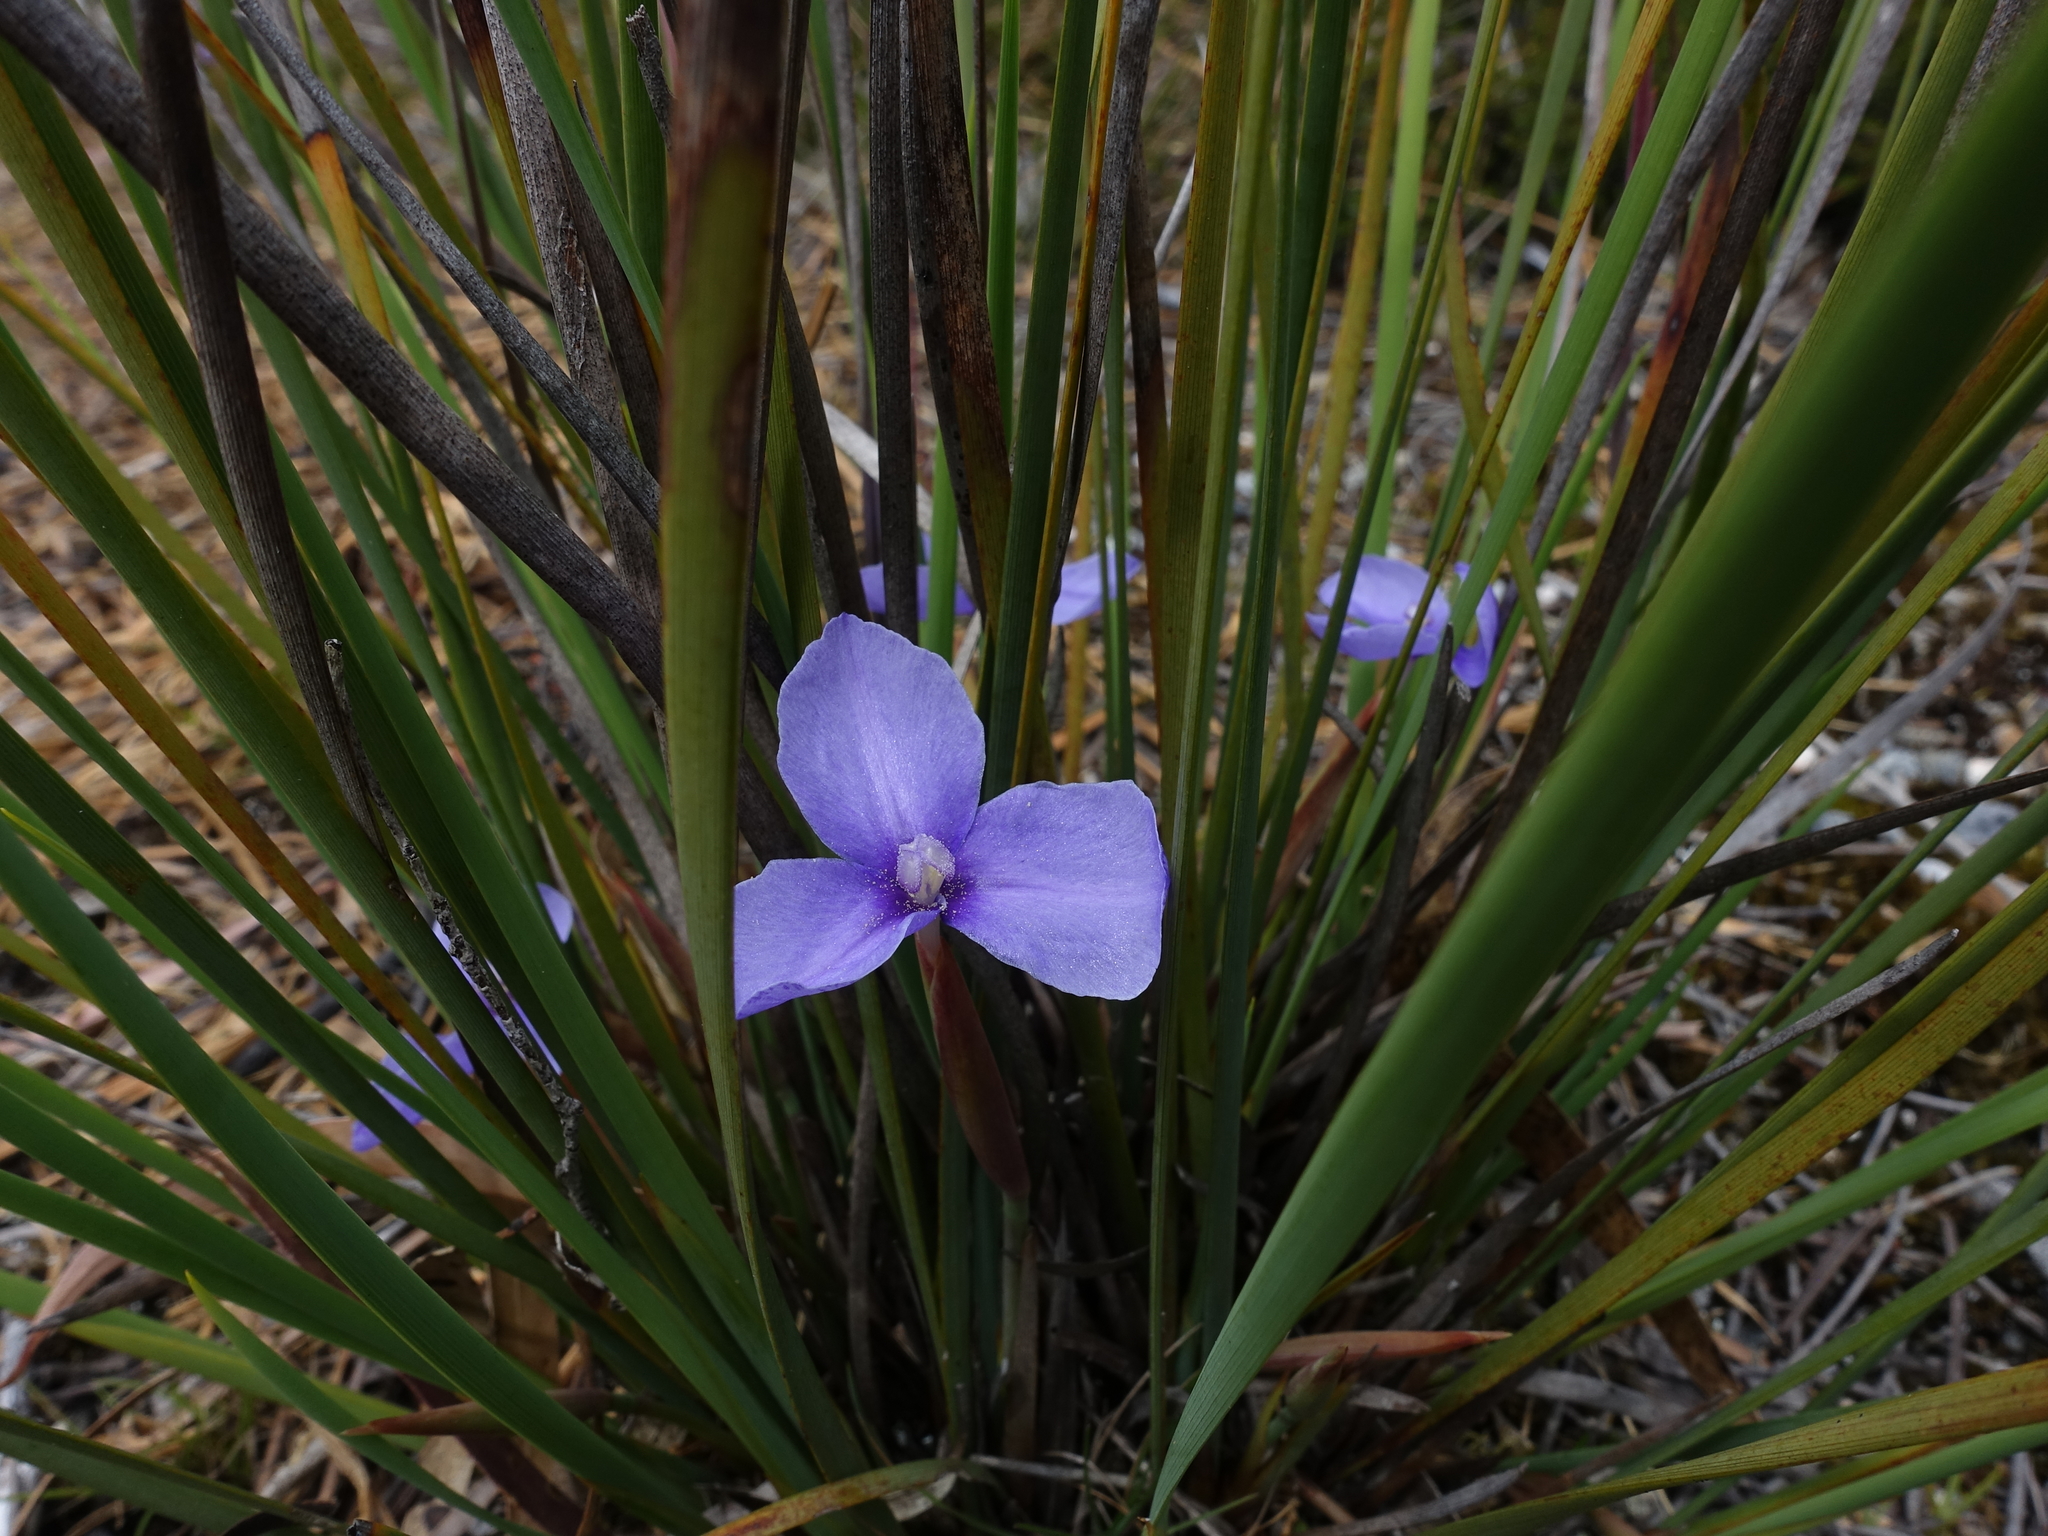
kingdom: Plantae
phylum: Tracheophyta
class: Liliopsida
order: Asparagales
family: Iridaceae
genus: Patersonia
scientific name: Patersonia fragilis
